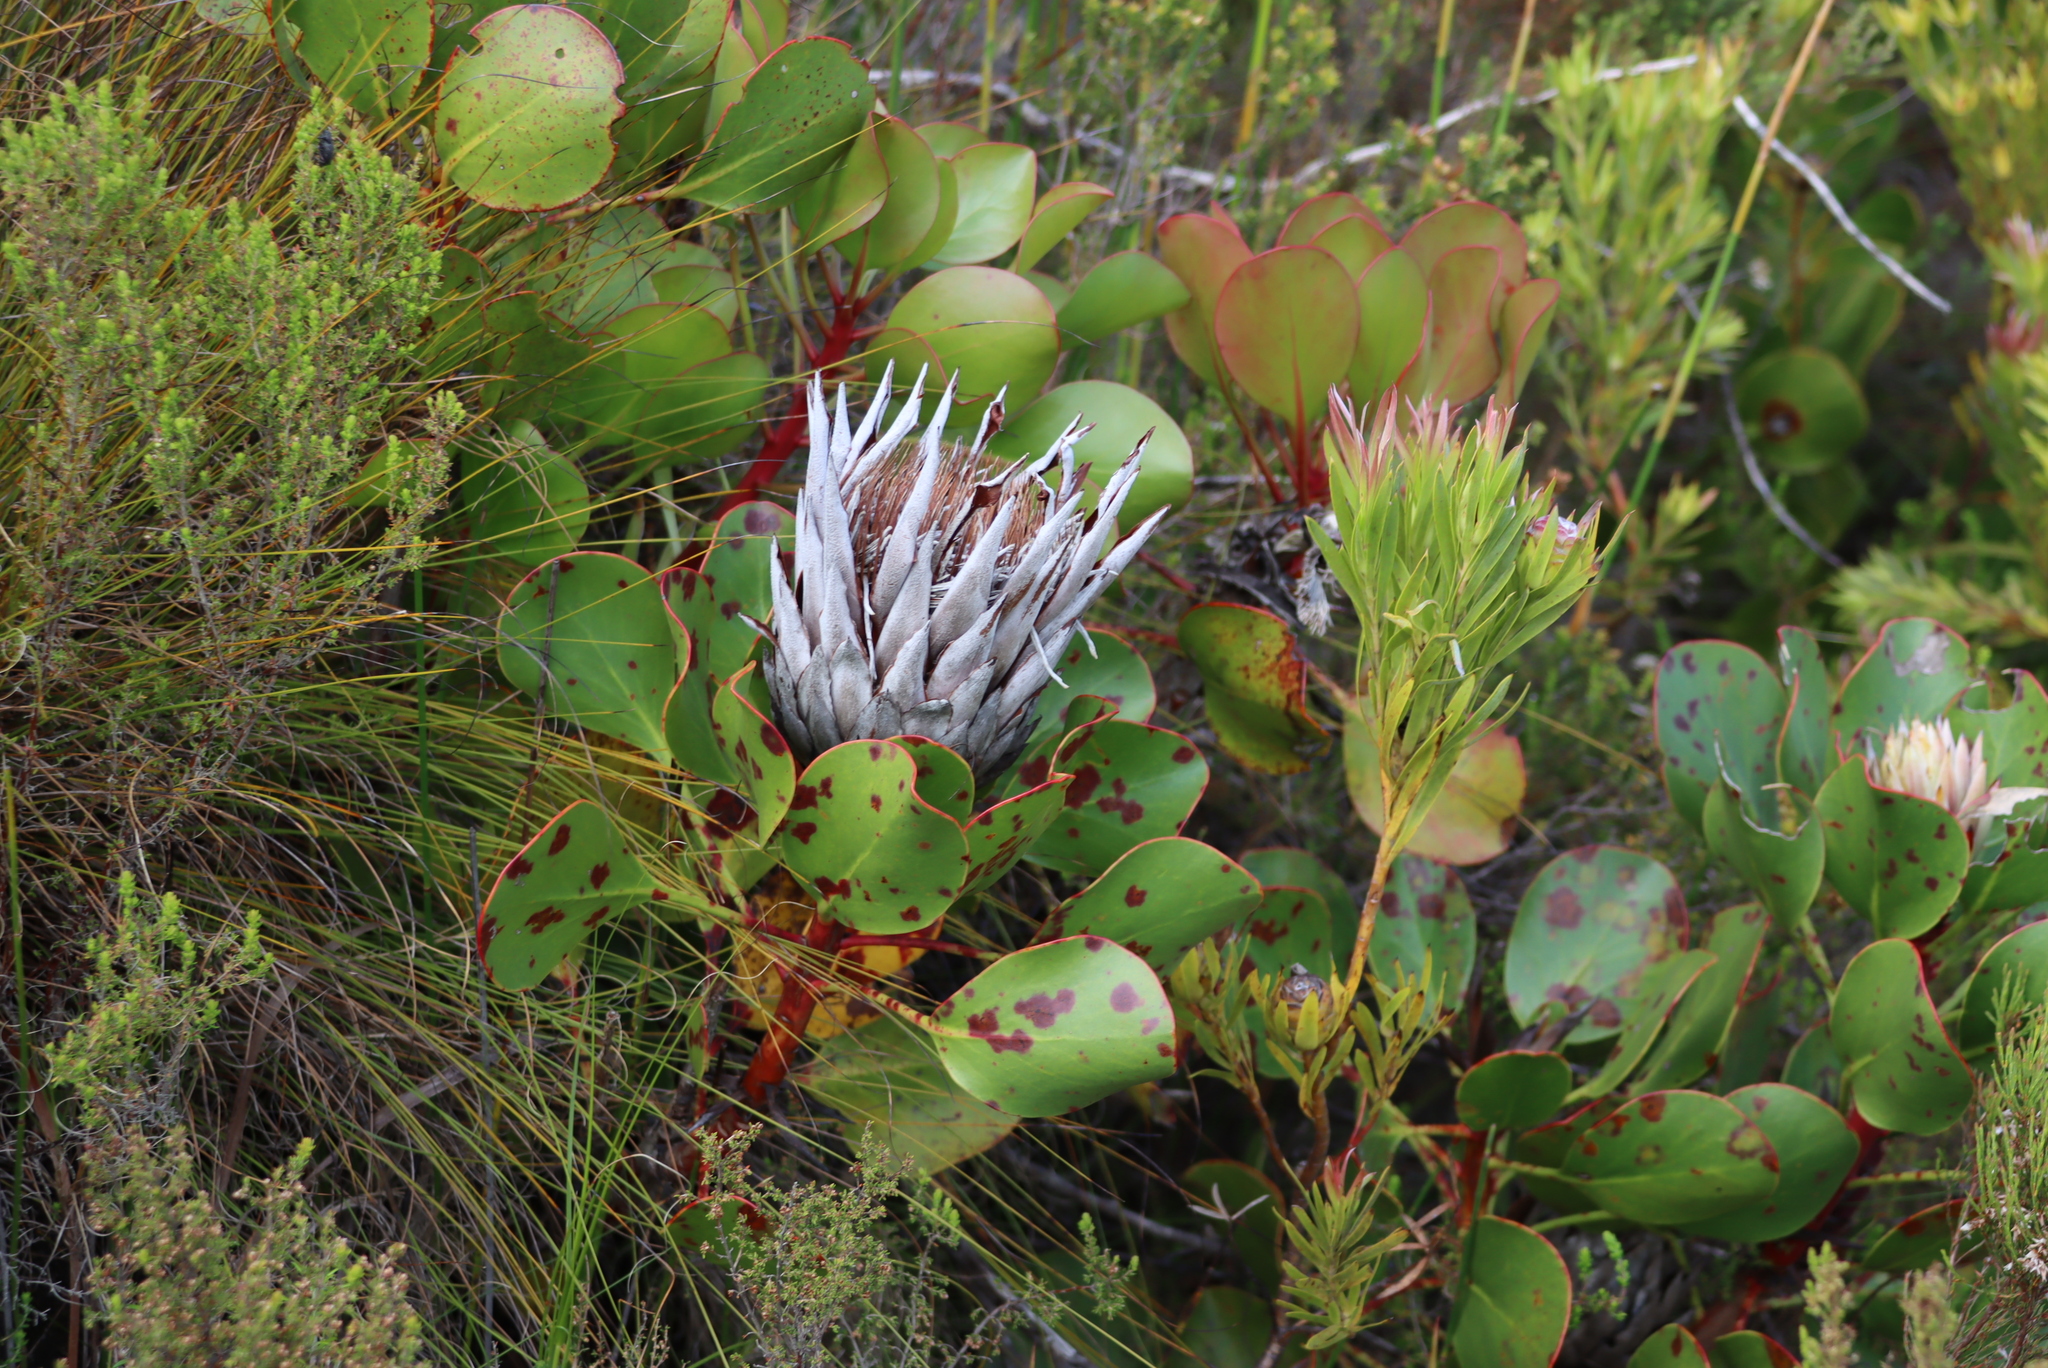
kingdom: Plantae
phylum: Tracheophyta
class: Magnoliopsida
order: Proteales
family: Proteaceae
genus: Protea
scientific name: Protea cynaroides
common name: King protea
